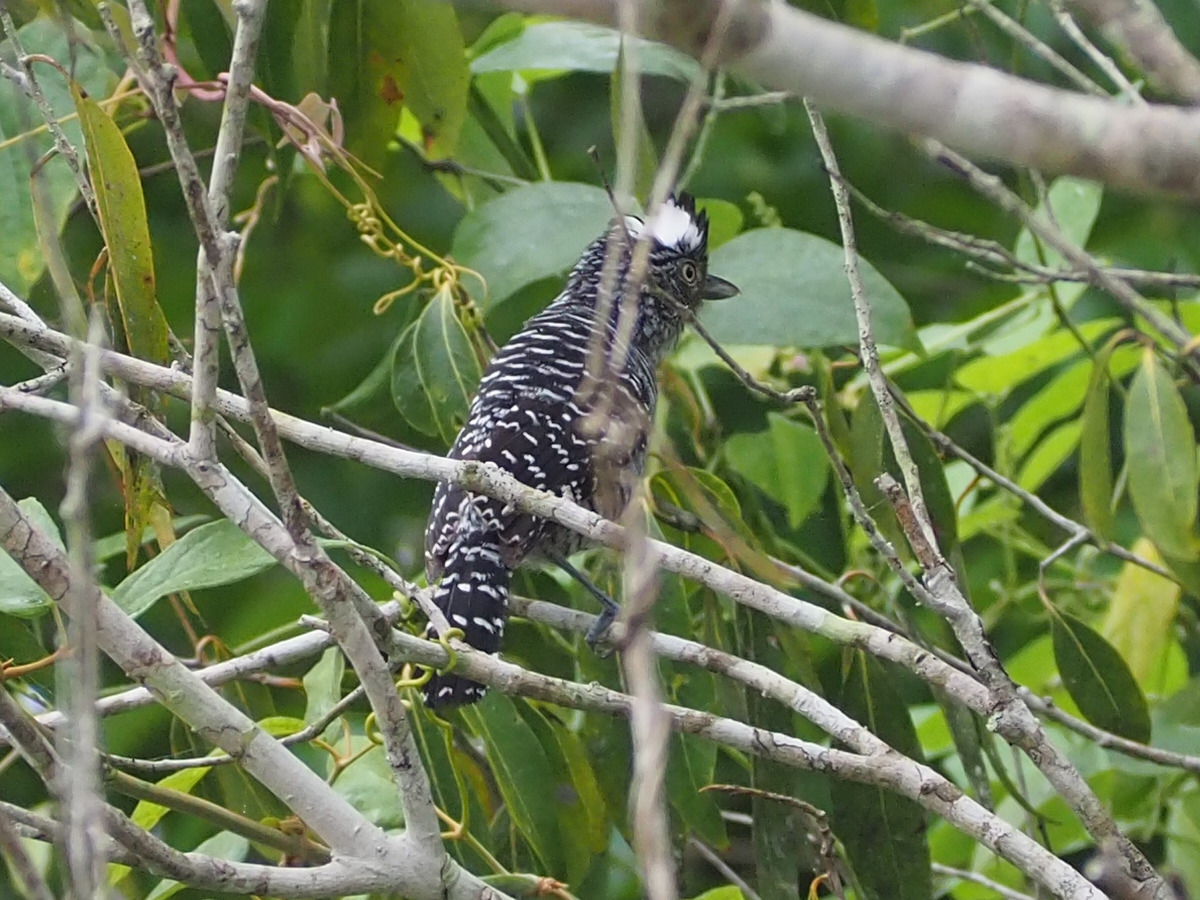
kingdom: Animalia
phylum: Chordata
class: Aves
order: Passeriformes
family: Thamnophilidae
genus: Thamnophilus
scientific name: Thamnophilus doliatus
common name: Barred antshrike
